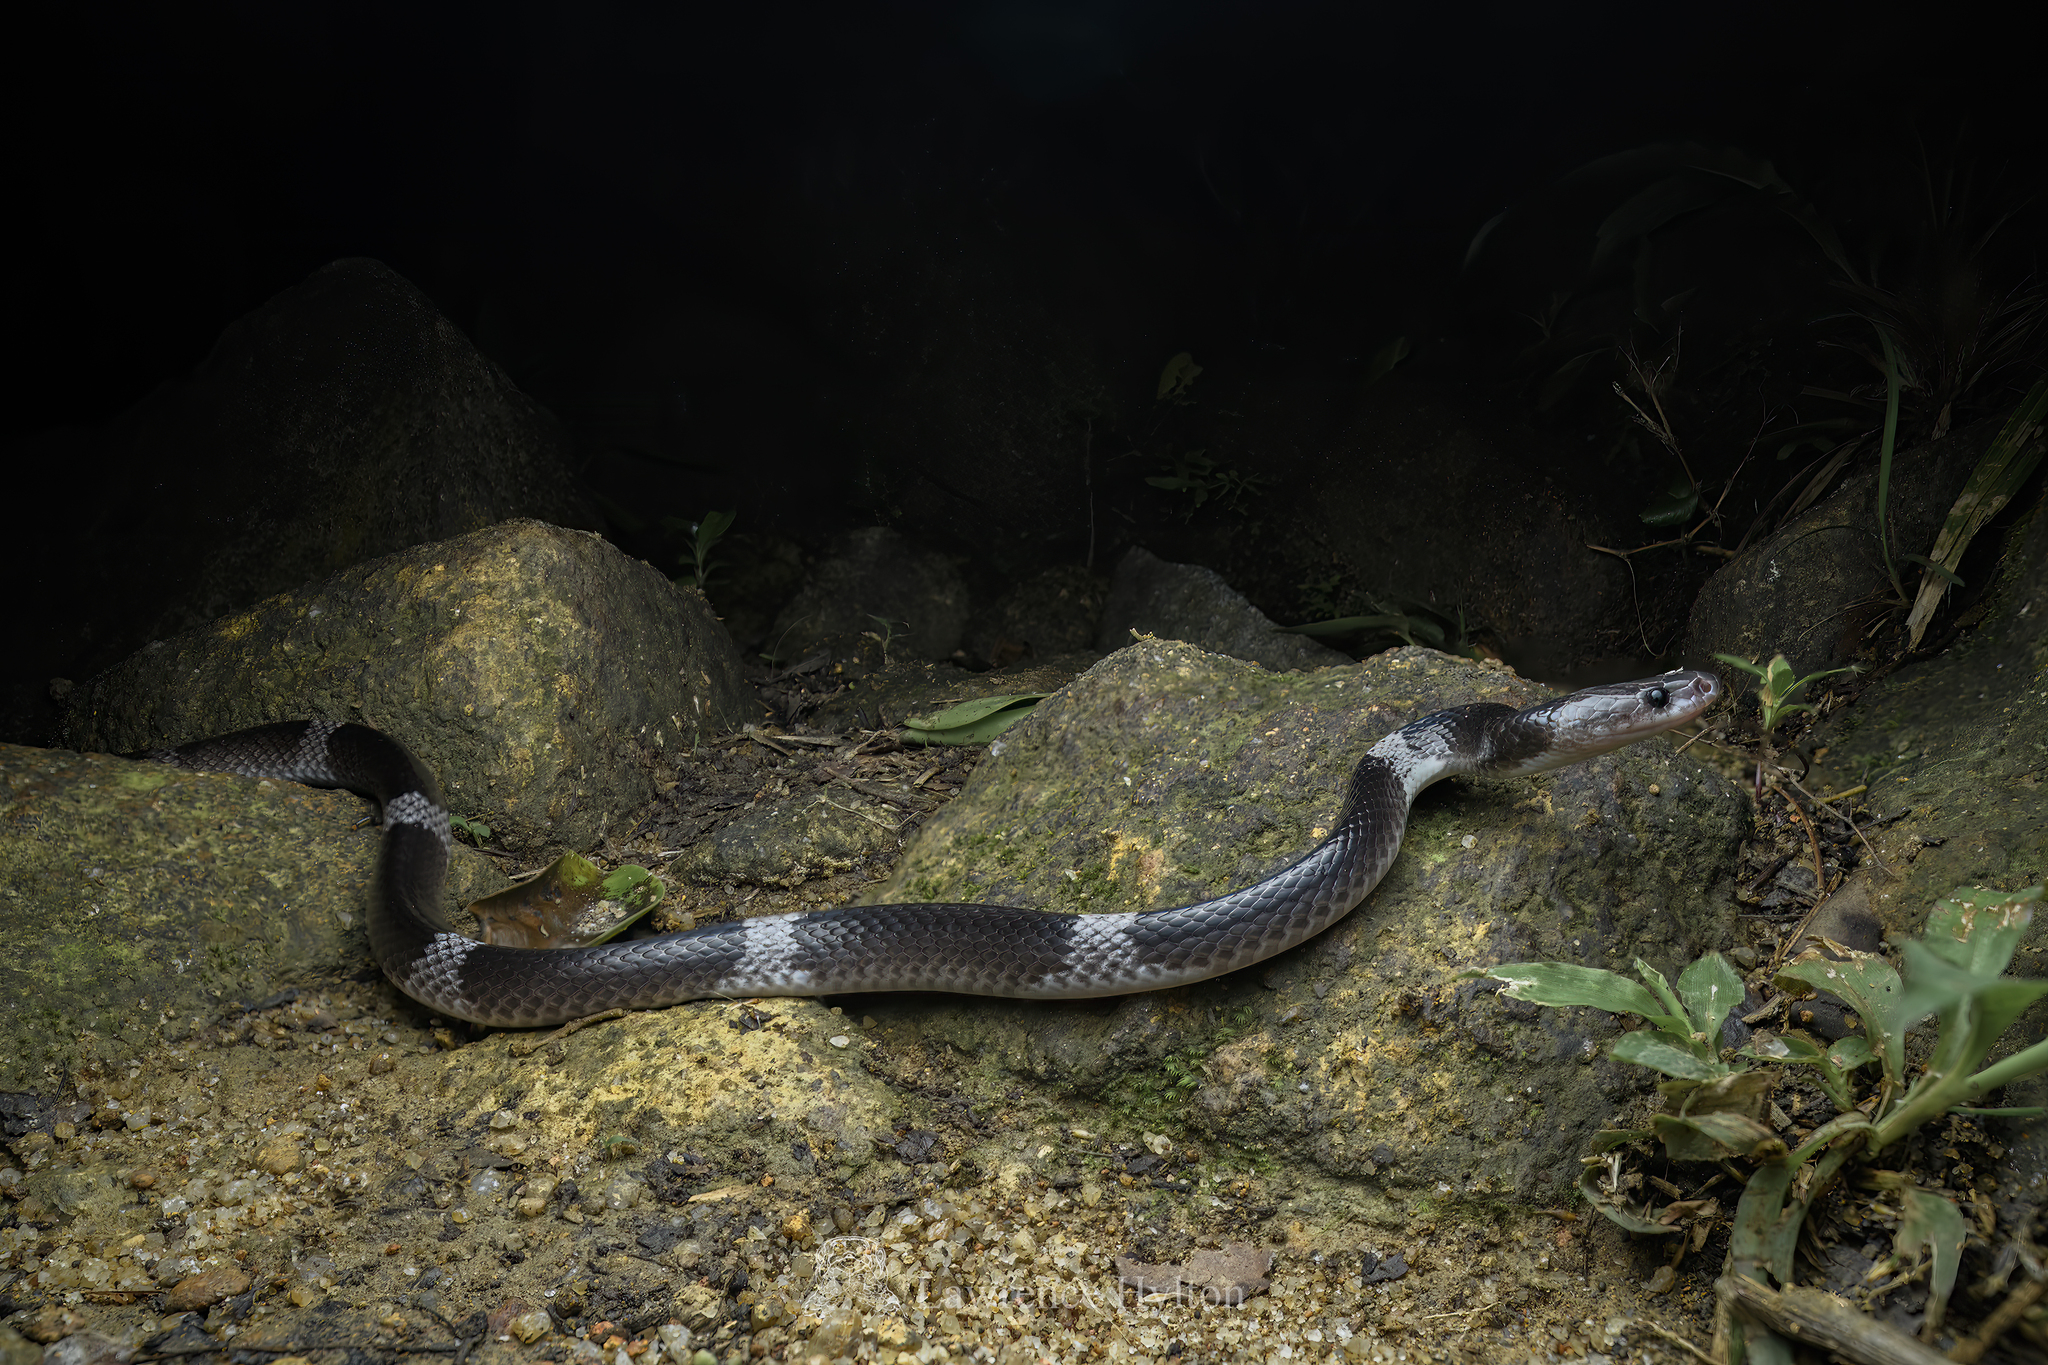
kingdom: Animalia
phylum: Chordata
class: Squamata
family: Colubridae
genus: Lycodon
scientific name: Lycodon subcinctus
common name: Malayan banded wolf snake
